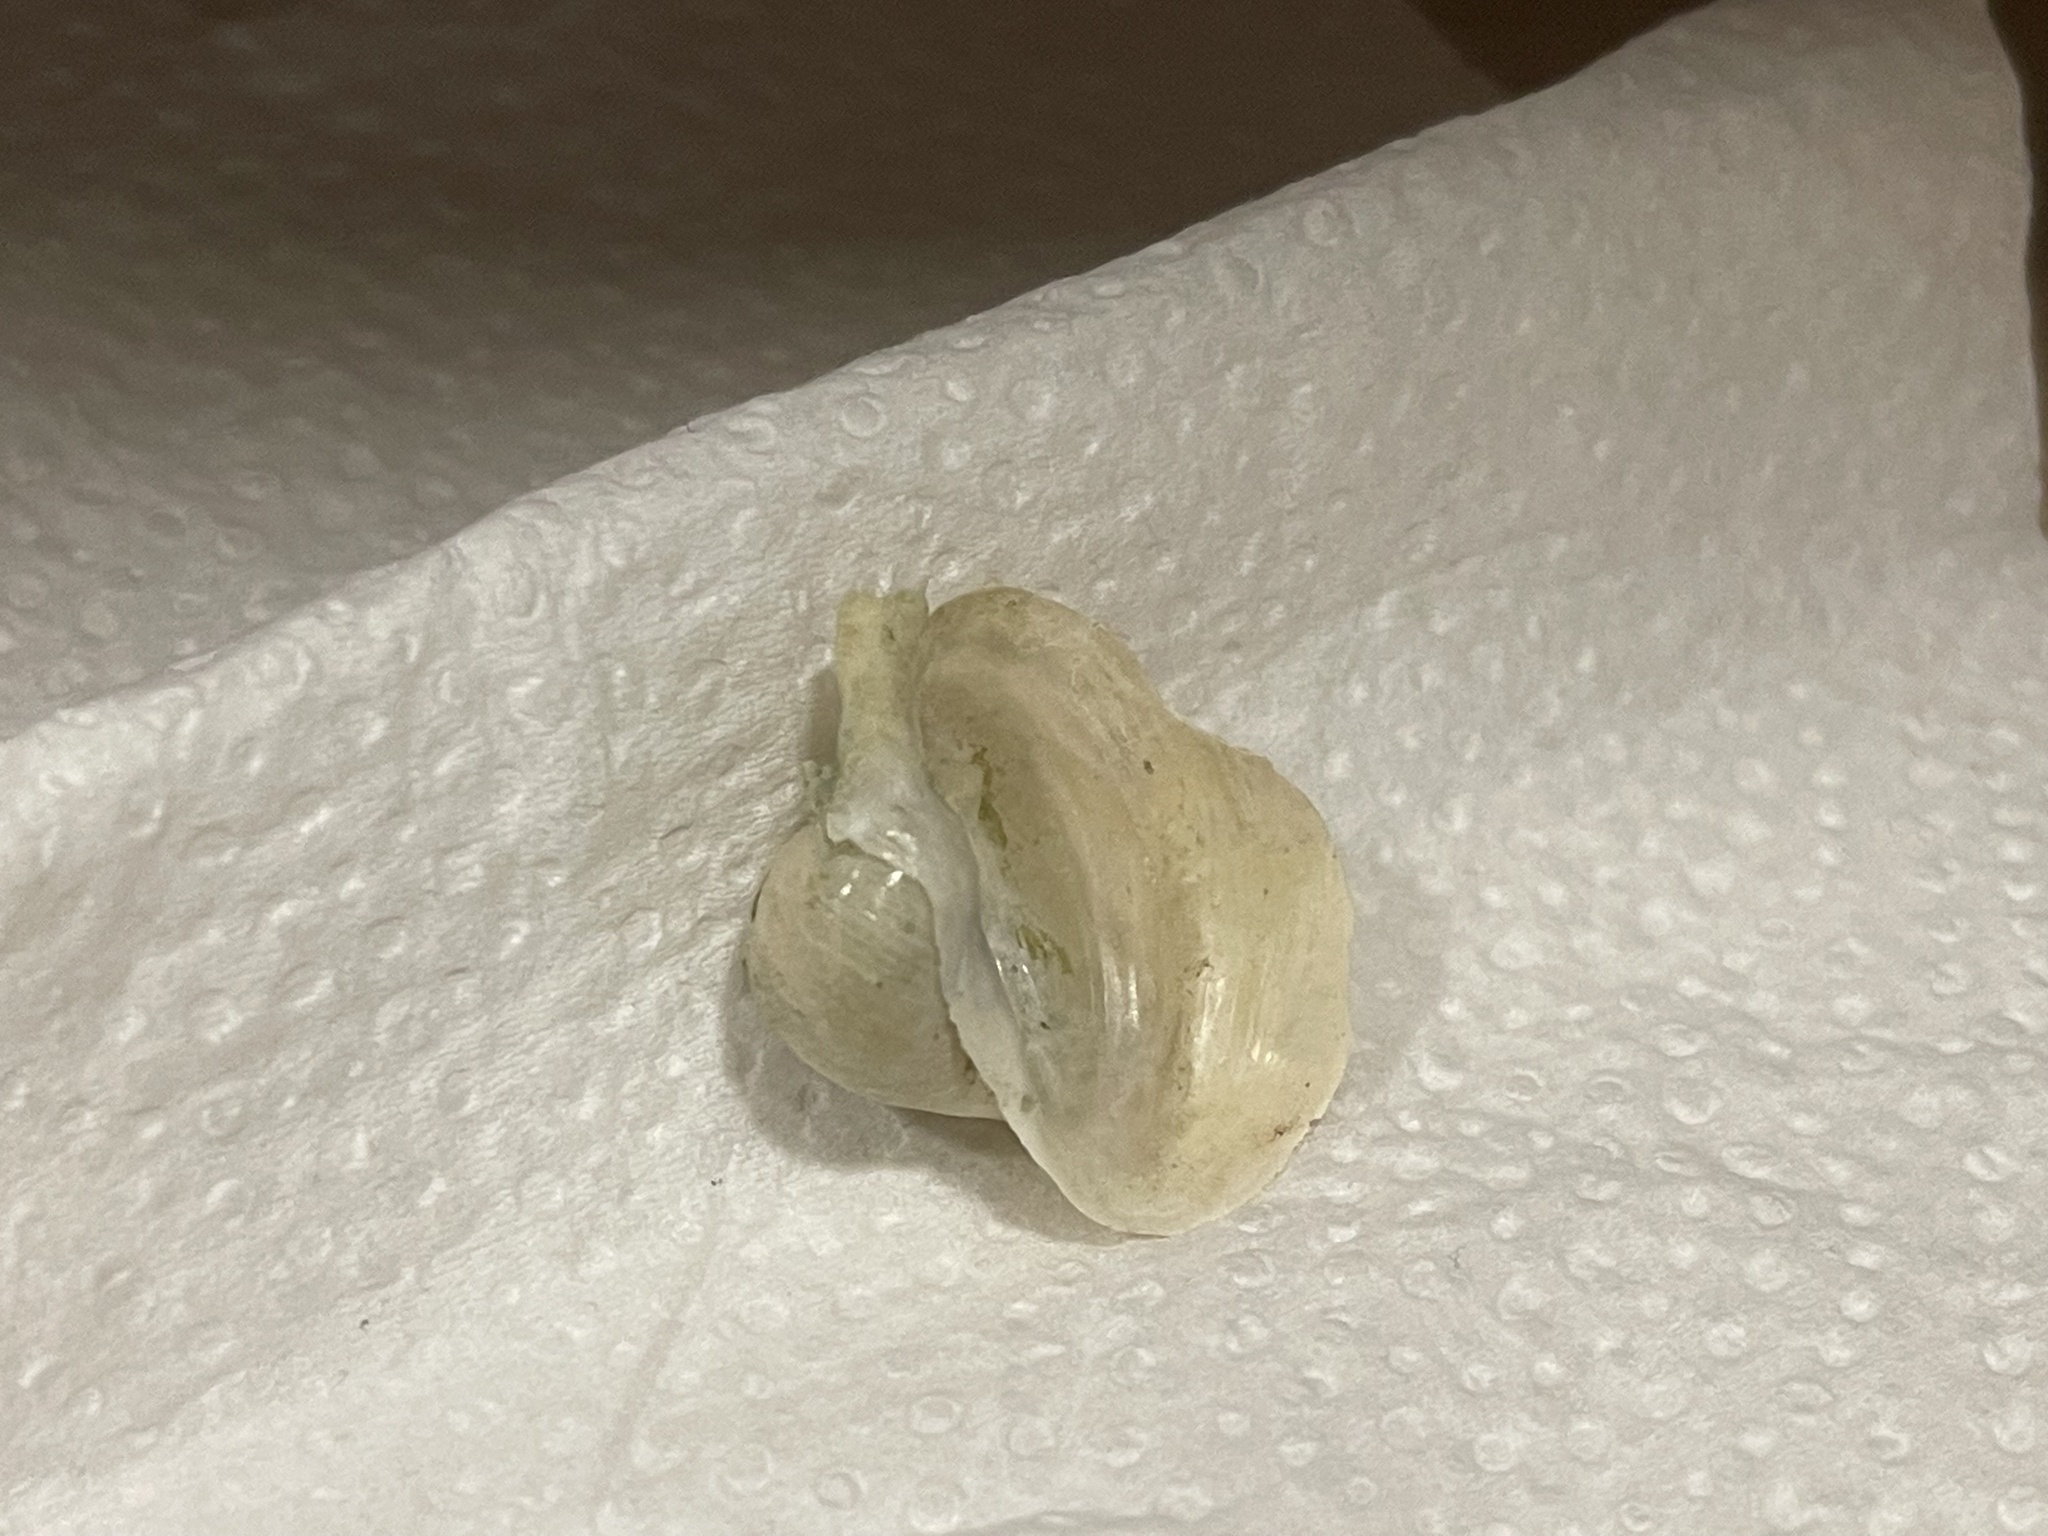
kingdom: Animalia
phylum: Mollusca
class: Gastropoda
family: Lymnaeidae
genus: Ampullaceana
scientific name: Ampullaceana ampla
